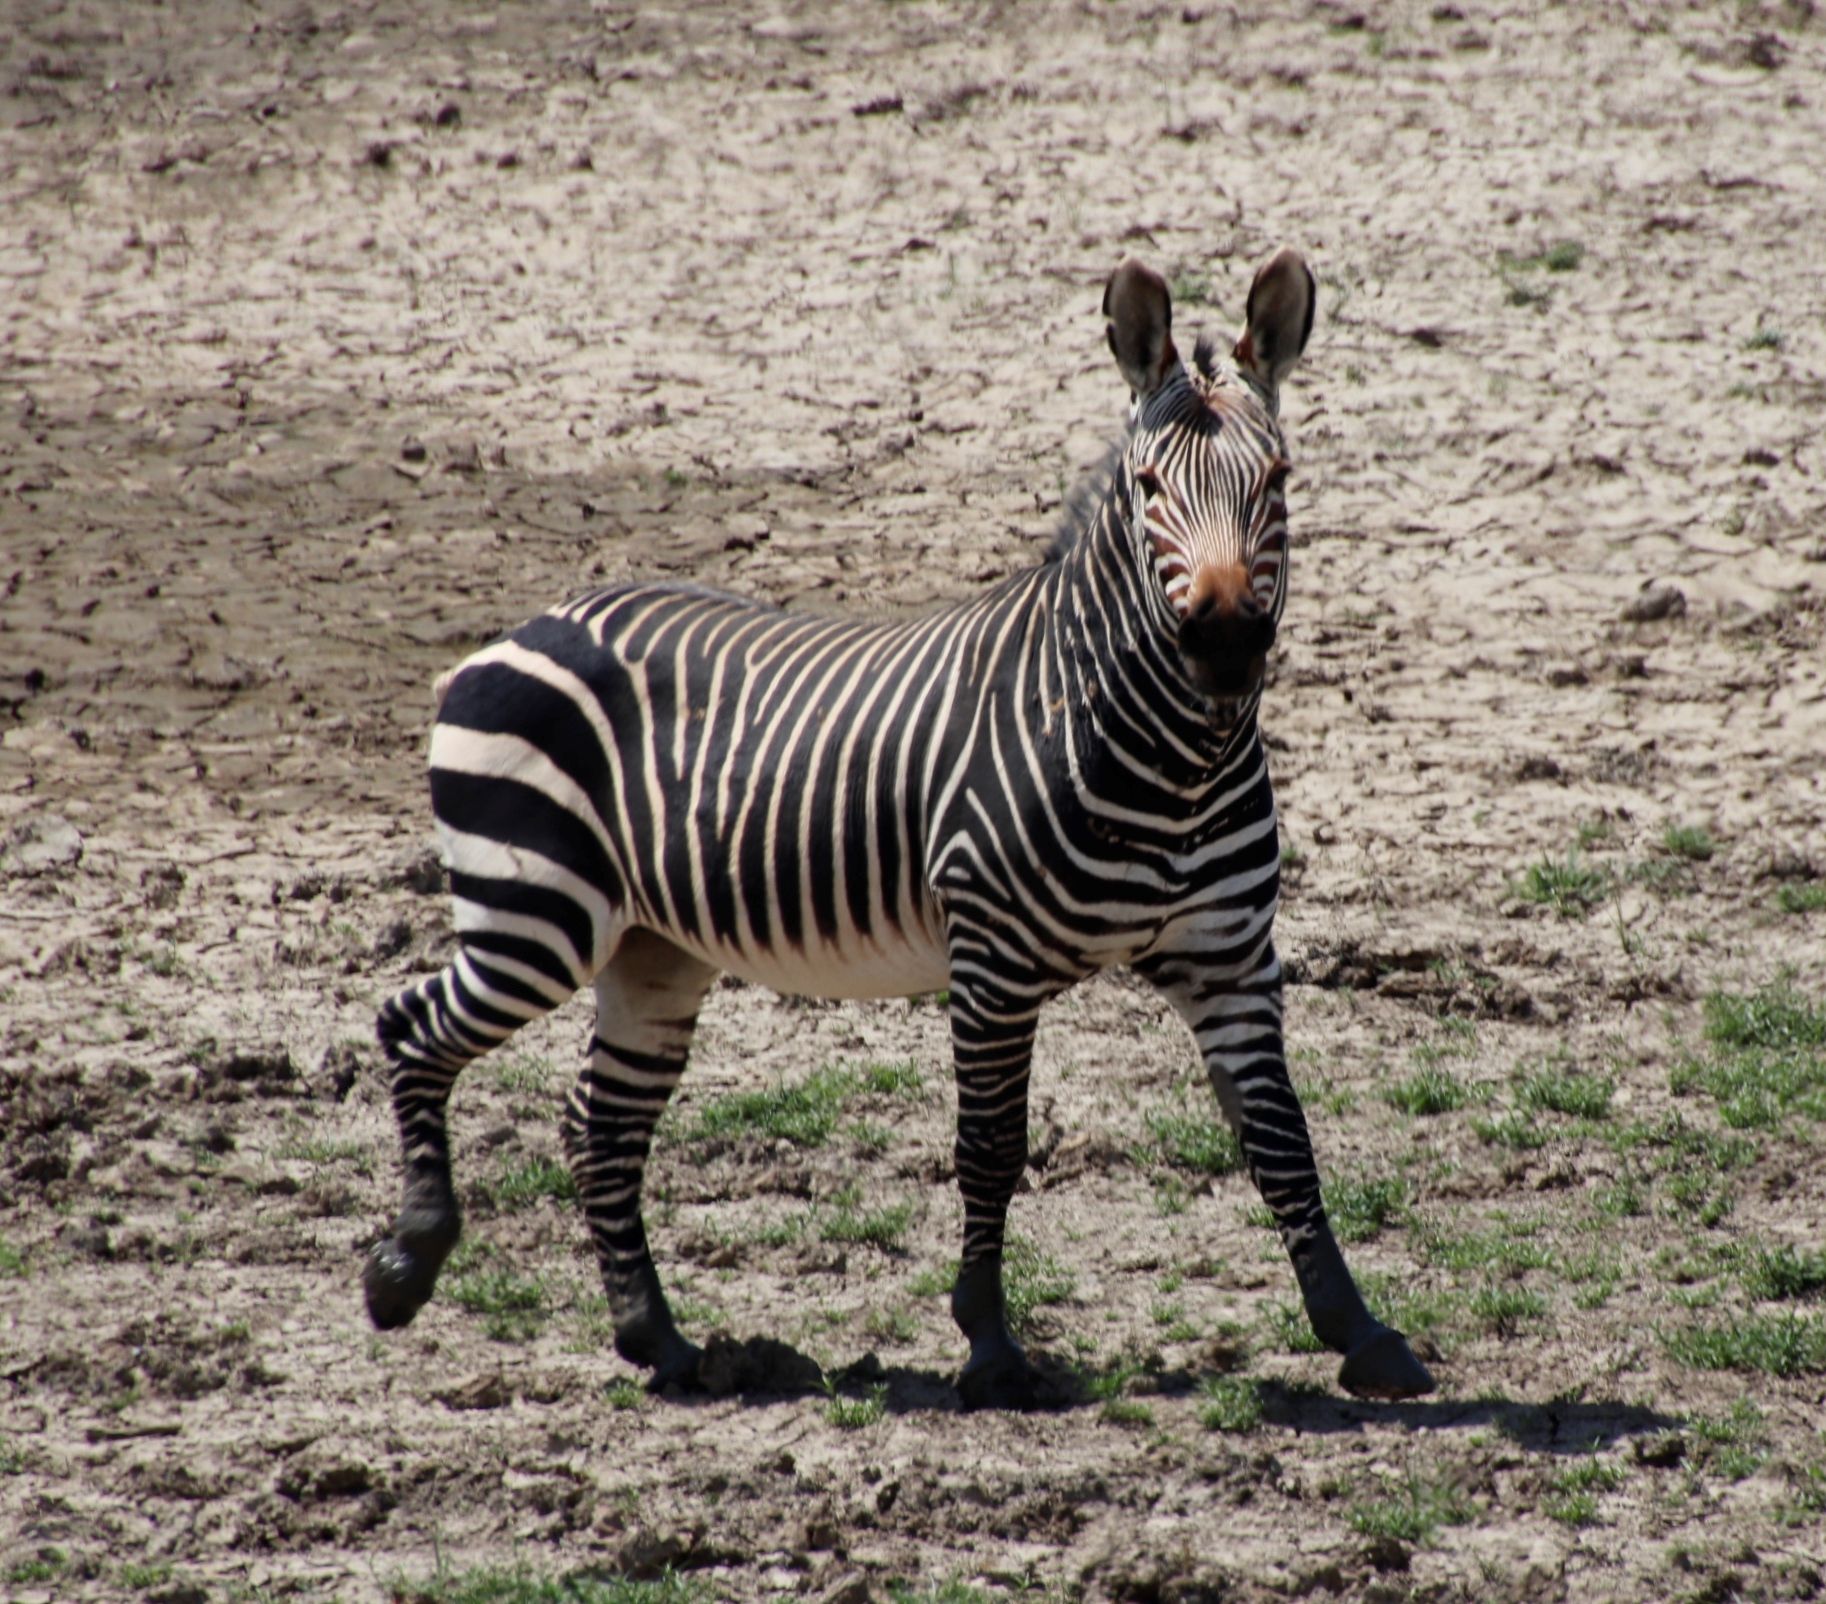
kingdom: Animalia
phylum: Chordata
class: Mammalia
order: Perissodactyla
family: Equidae
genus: Equus
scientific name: Equus zebra
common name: Mountain zebra
